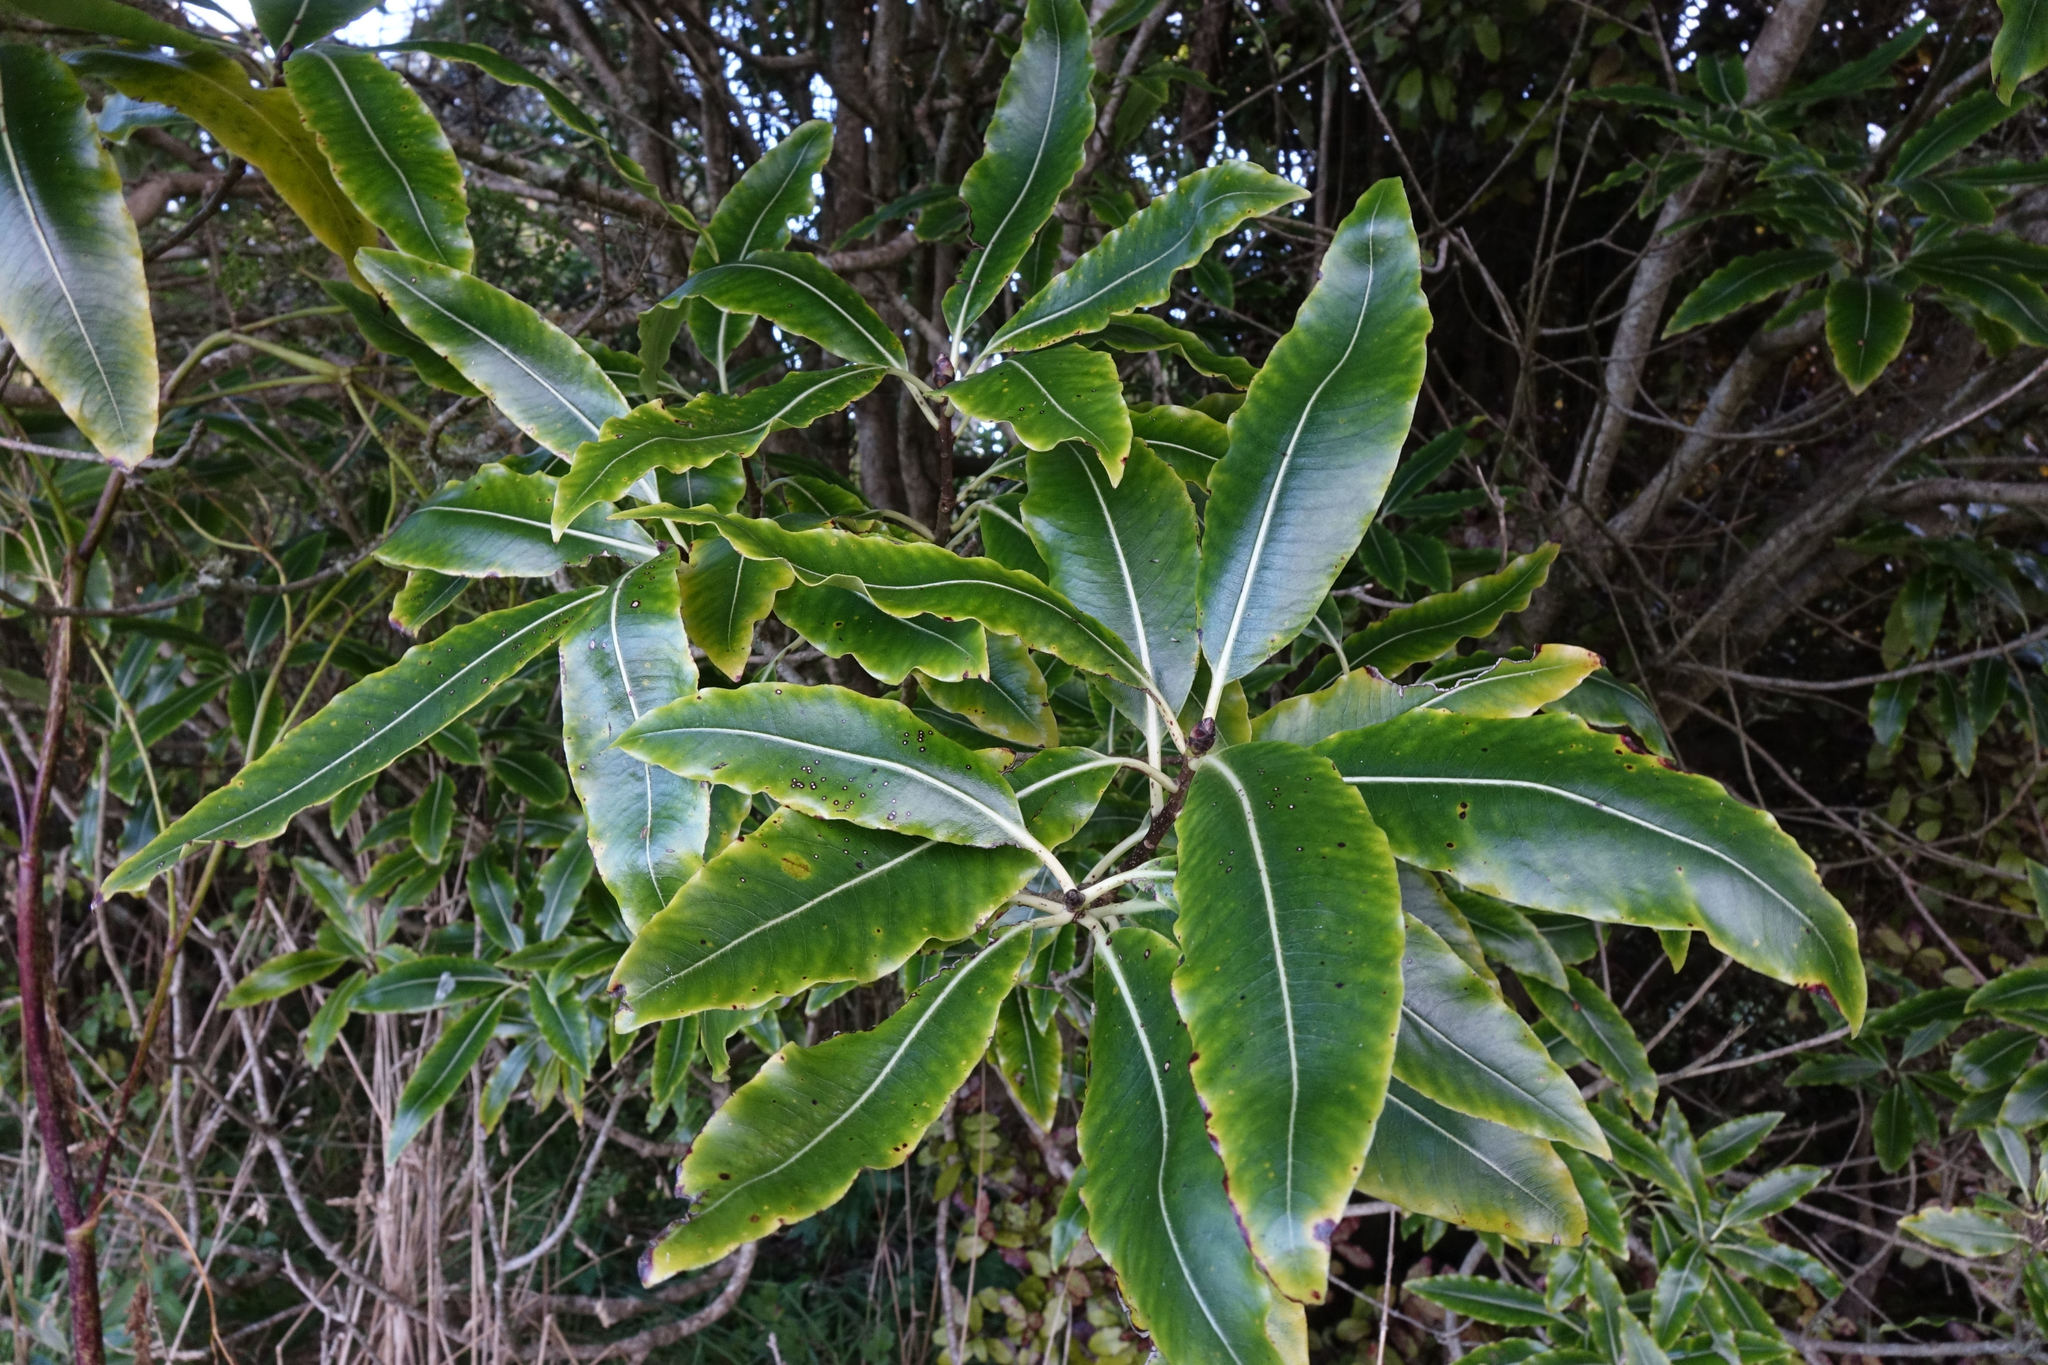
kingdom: Plantae
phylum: Tracheophyta
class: Magnoliopsida
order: Apiales
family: Pittosporaceae
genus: Pittosporum
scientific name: Pittosporum eugenioides
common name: Lemonwood
